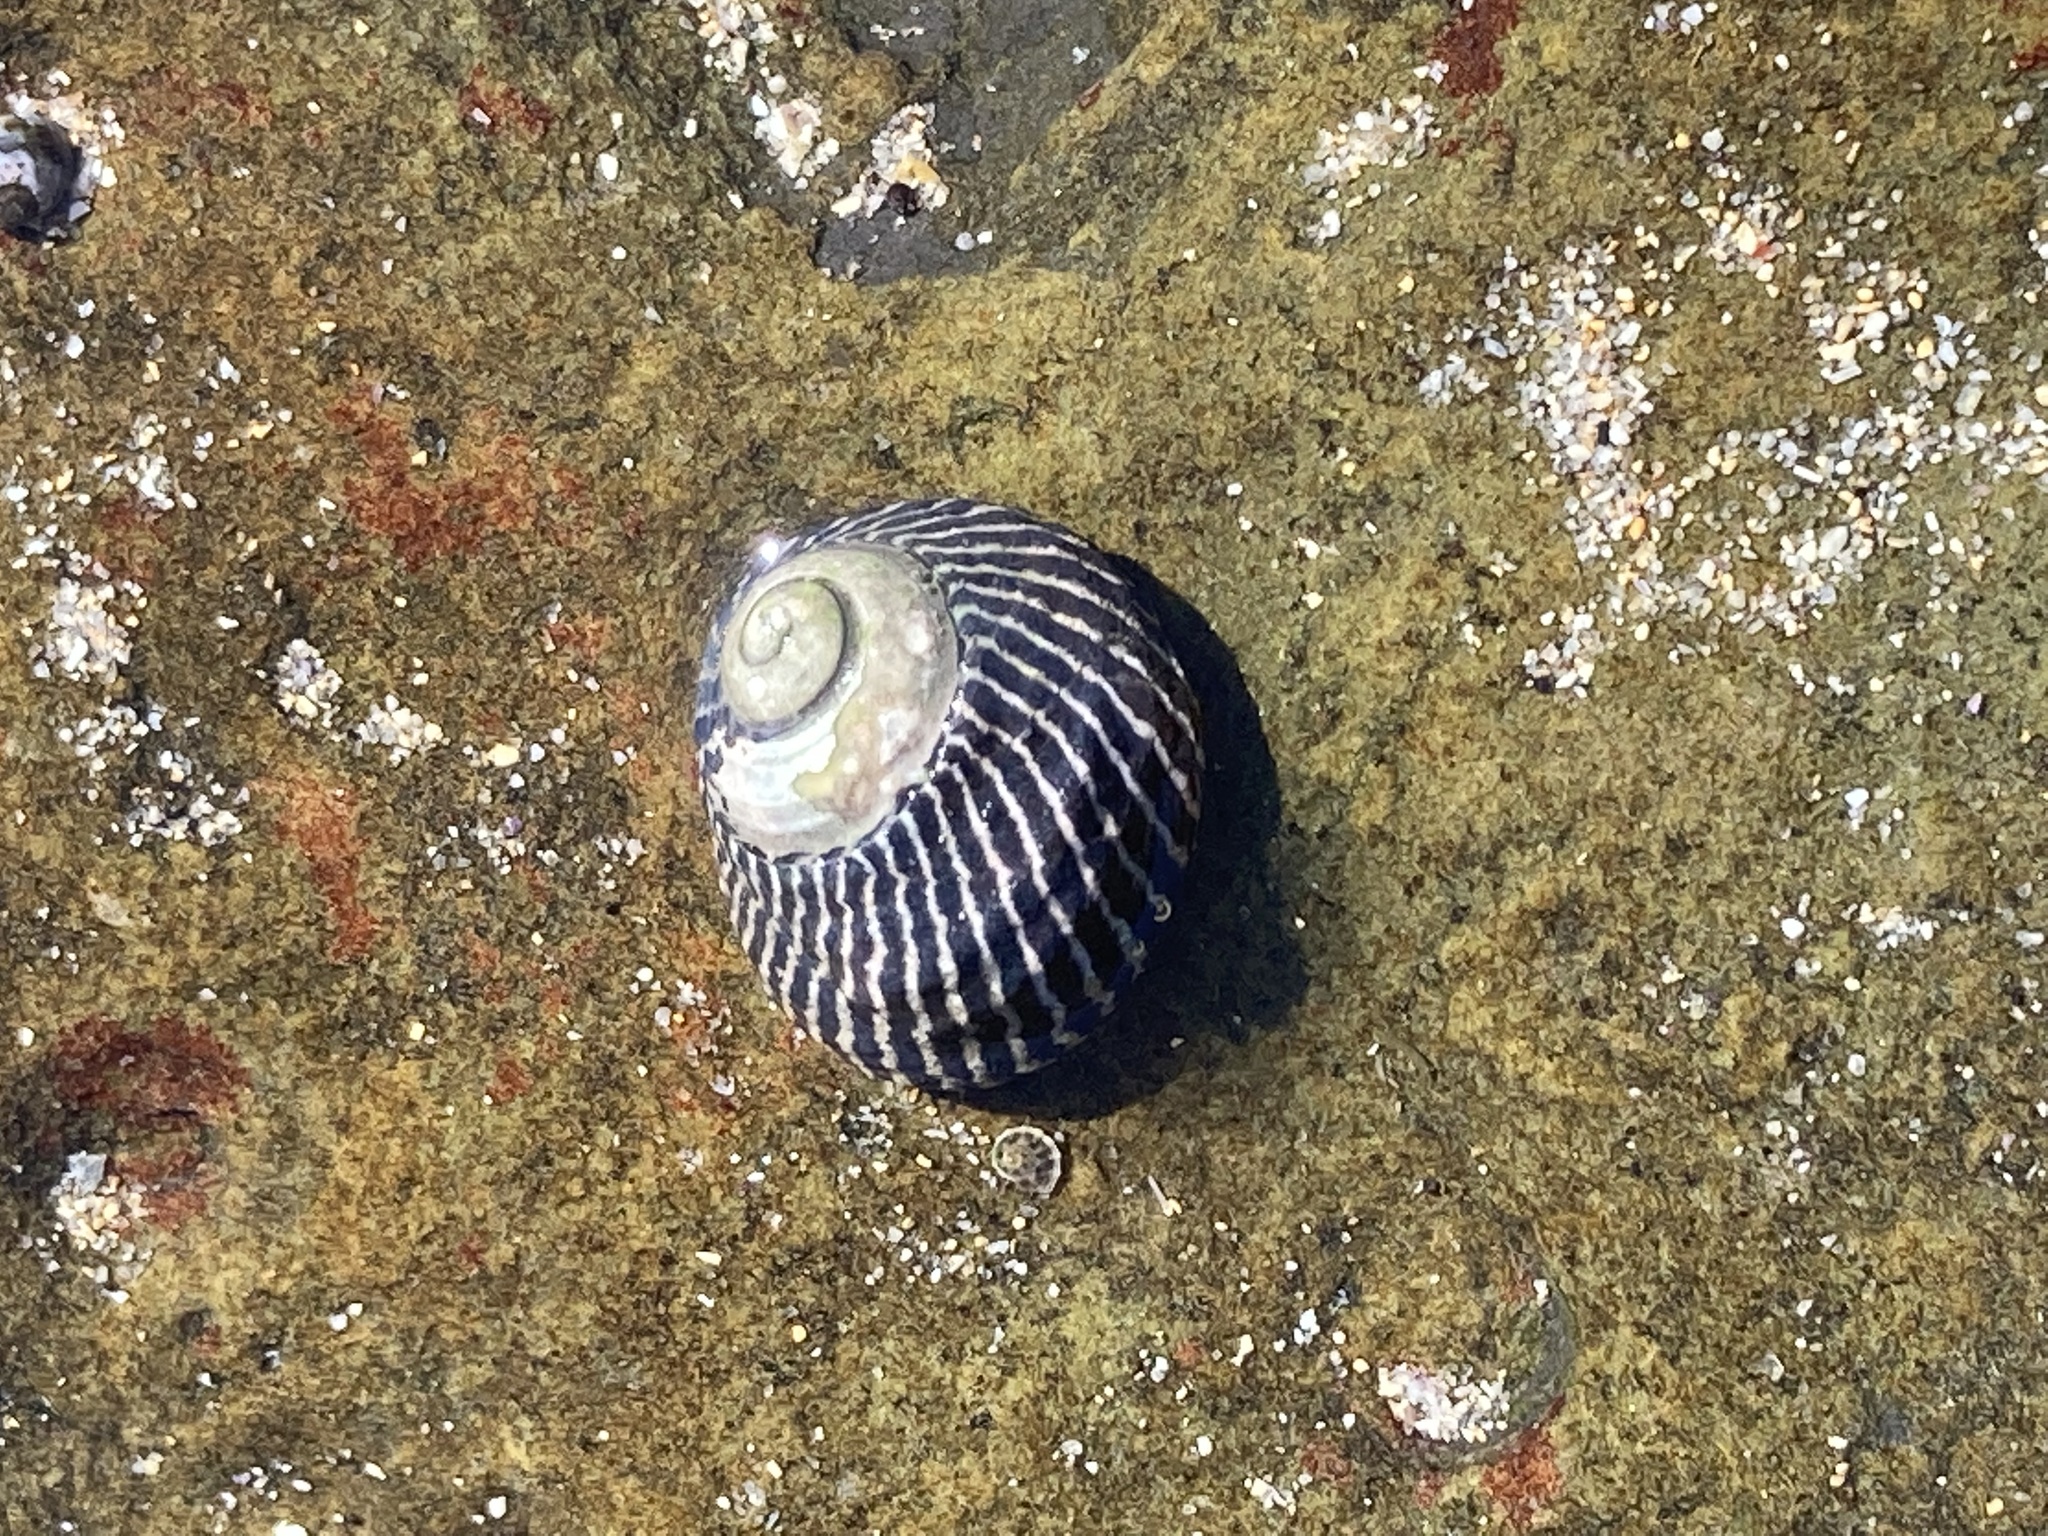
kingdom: Animalia
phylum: Mollusca
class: Gastropoda
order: Trochida
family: Trochidae
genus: Austrocochlea
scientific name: Austrocochlea porcata
